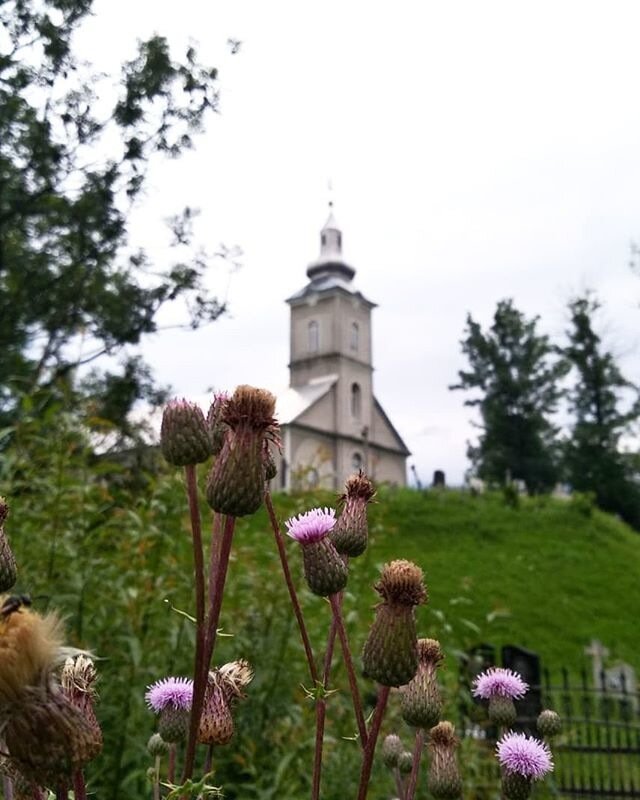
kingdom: Plantae
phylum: Tracheophyta
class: Magnoliopsida
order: Asterales
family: Asteraceae
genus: Cirsium
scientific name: Cirsium arvense
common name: Creeping thistle
